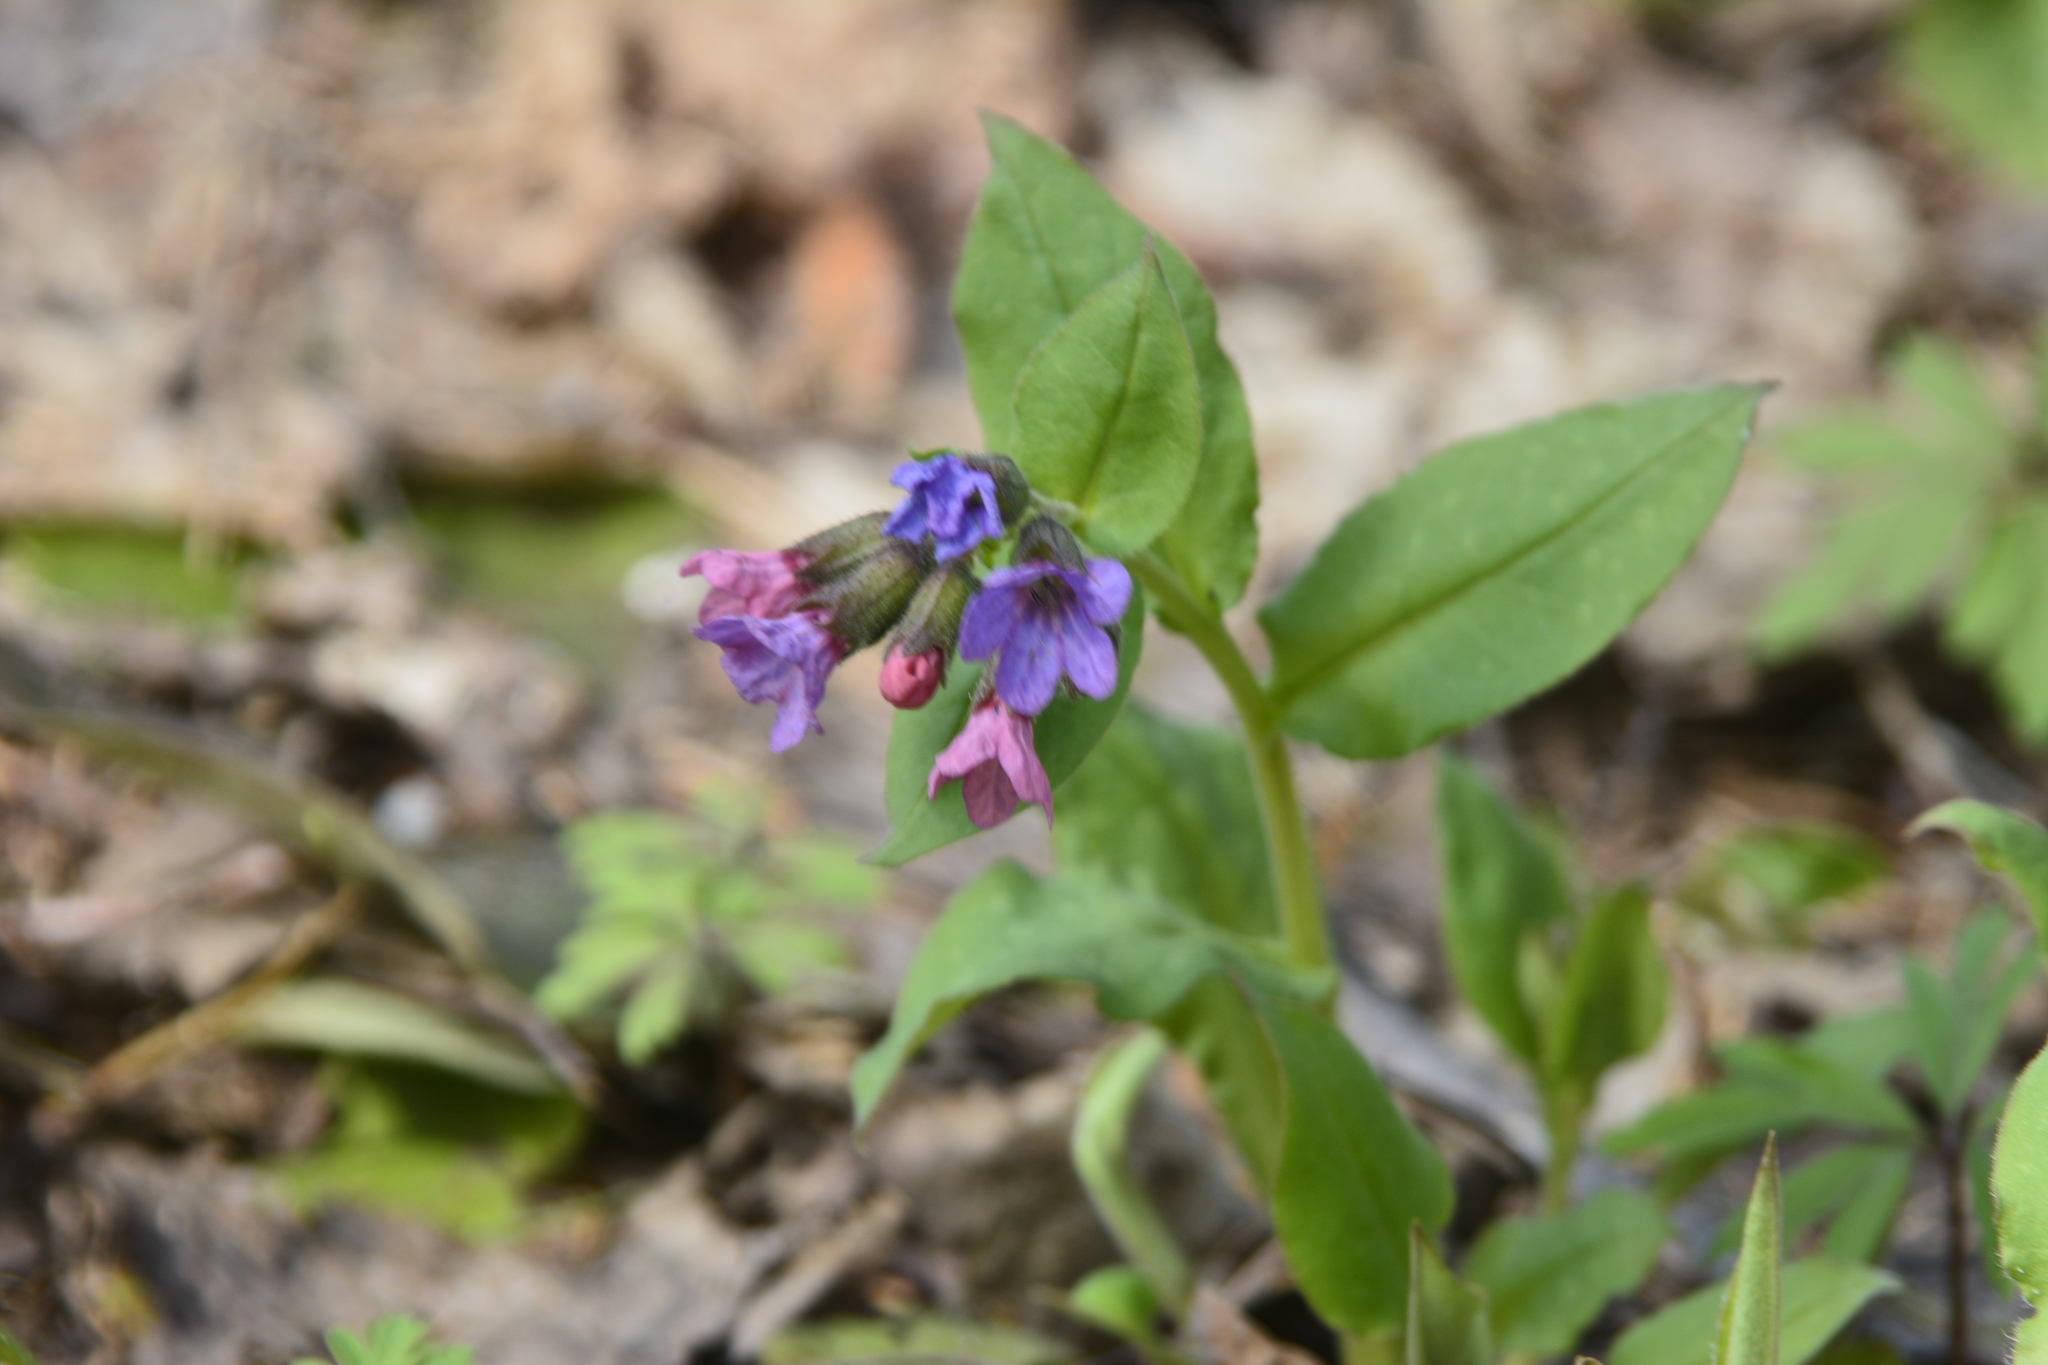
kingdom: Plantae
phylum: Tracheophyta
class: Magnoliopsida
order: Boraginales
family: Boraginaceae
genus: Pulmonaria
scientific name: Pulmonaria obscura
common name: Suffolk lungwort
